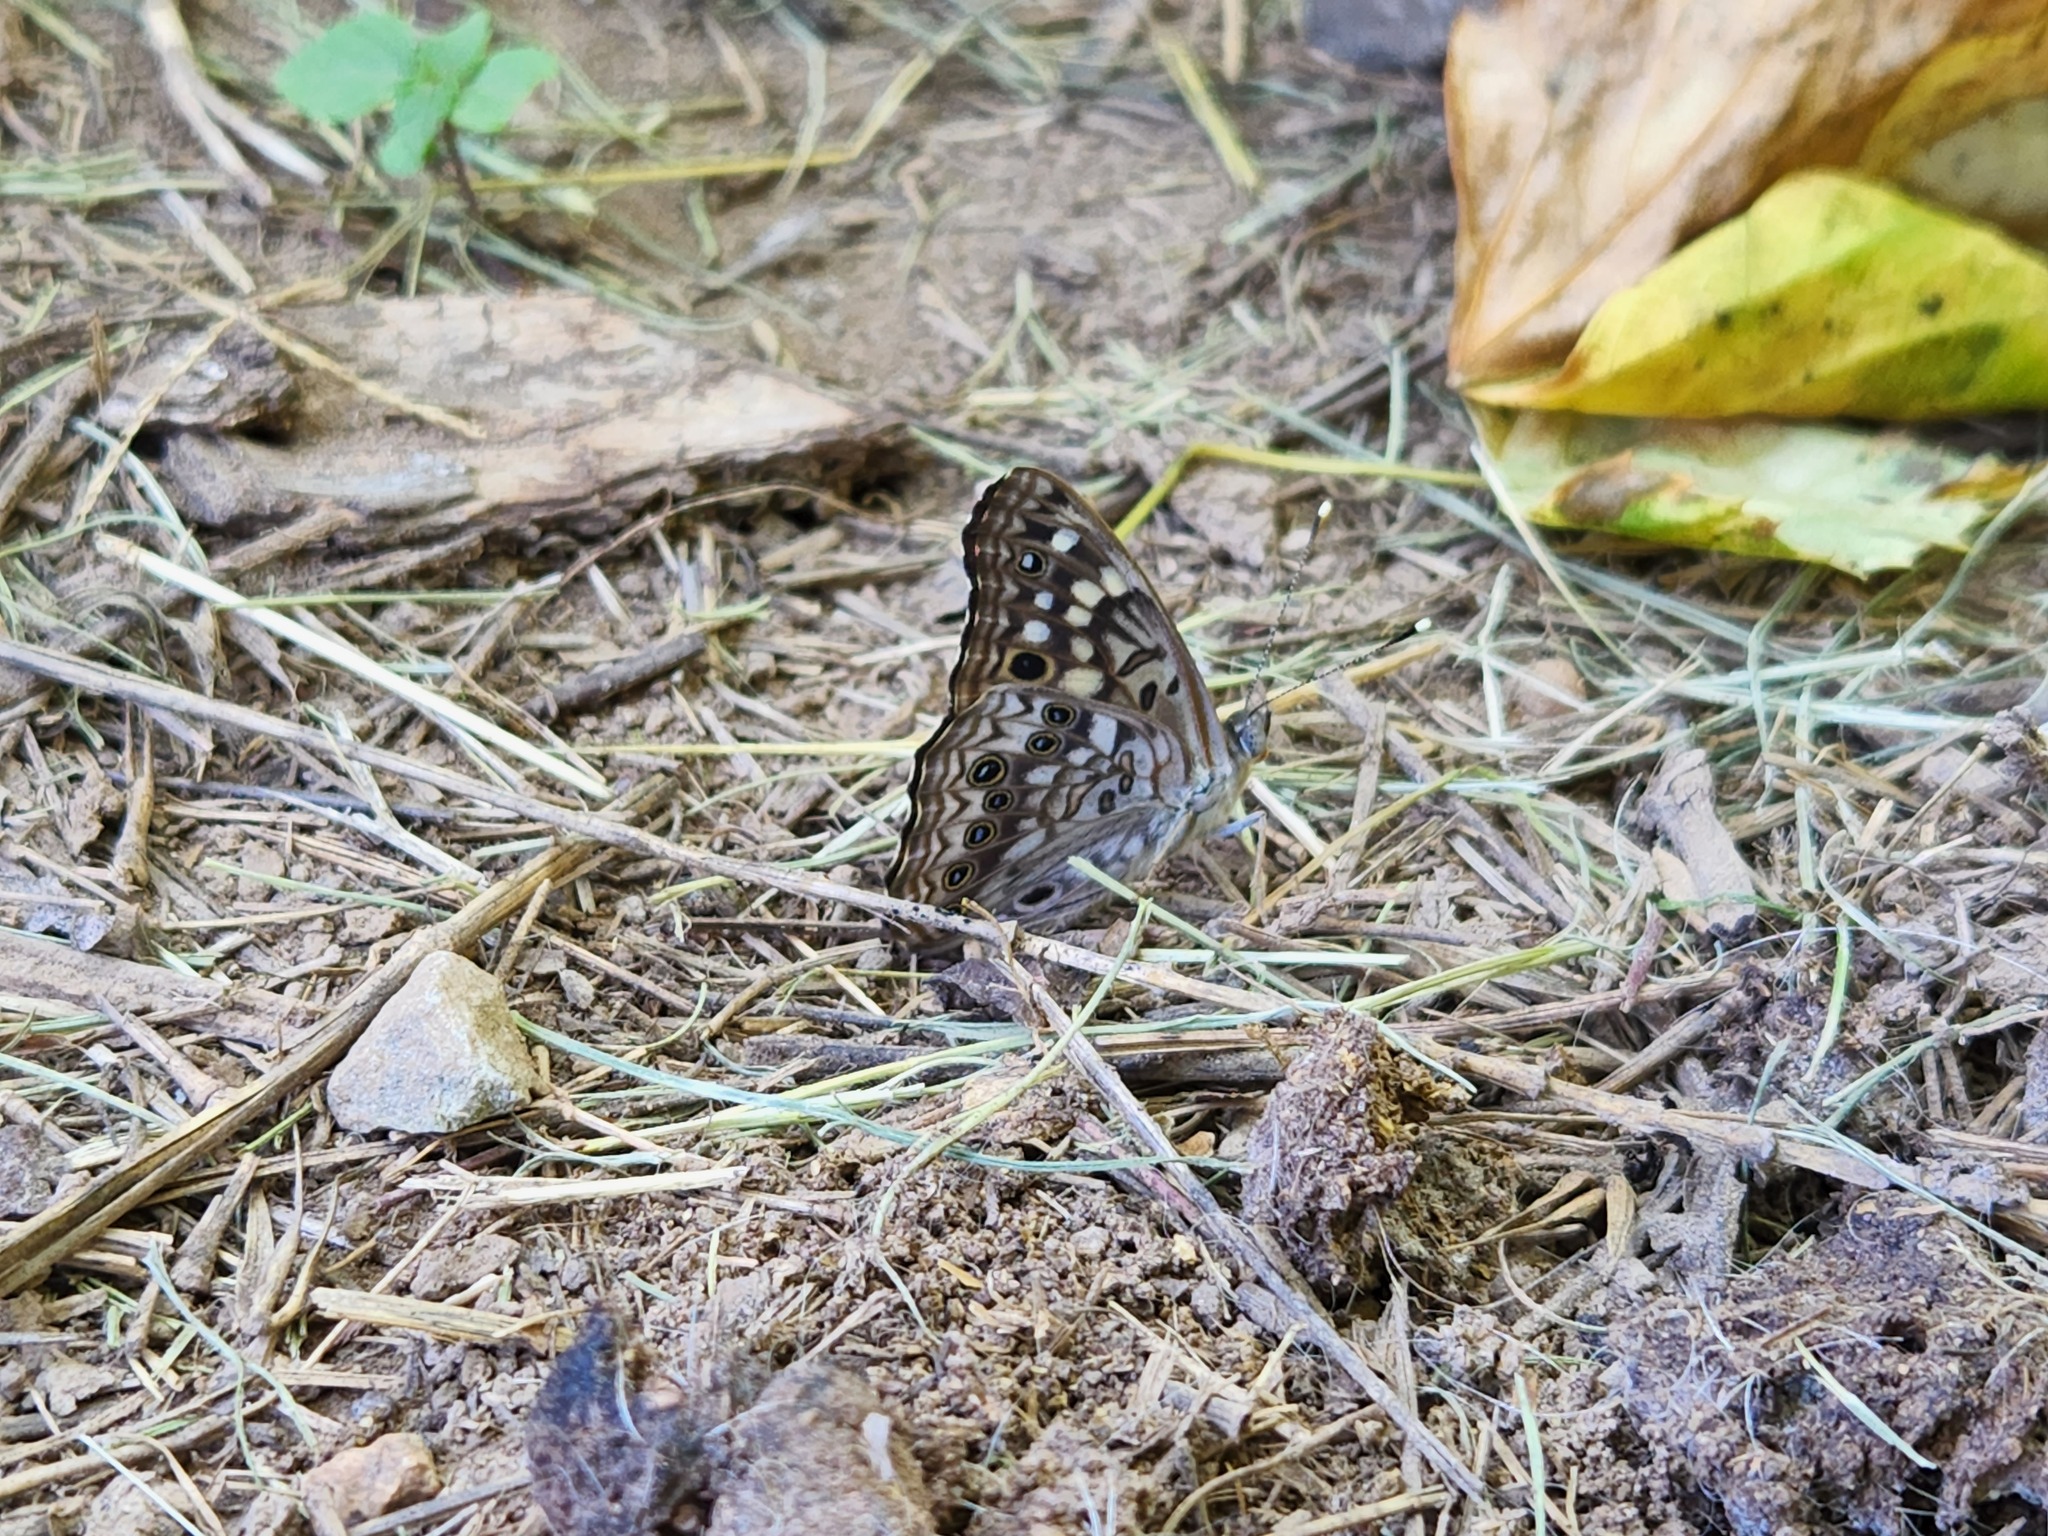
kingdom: Animalia
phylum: Arthropoda
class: Insecta
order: Lepidoptera
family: Nymphalidae
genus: Asterocampa
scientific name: Asterocampa celtis
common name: Hackberry emperor
